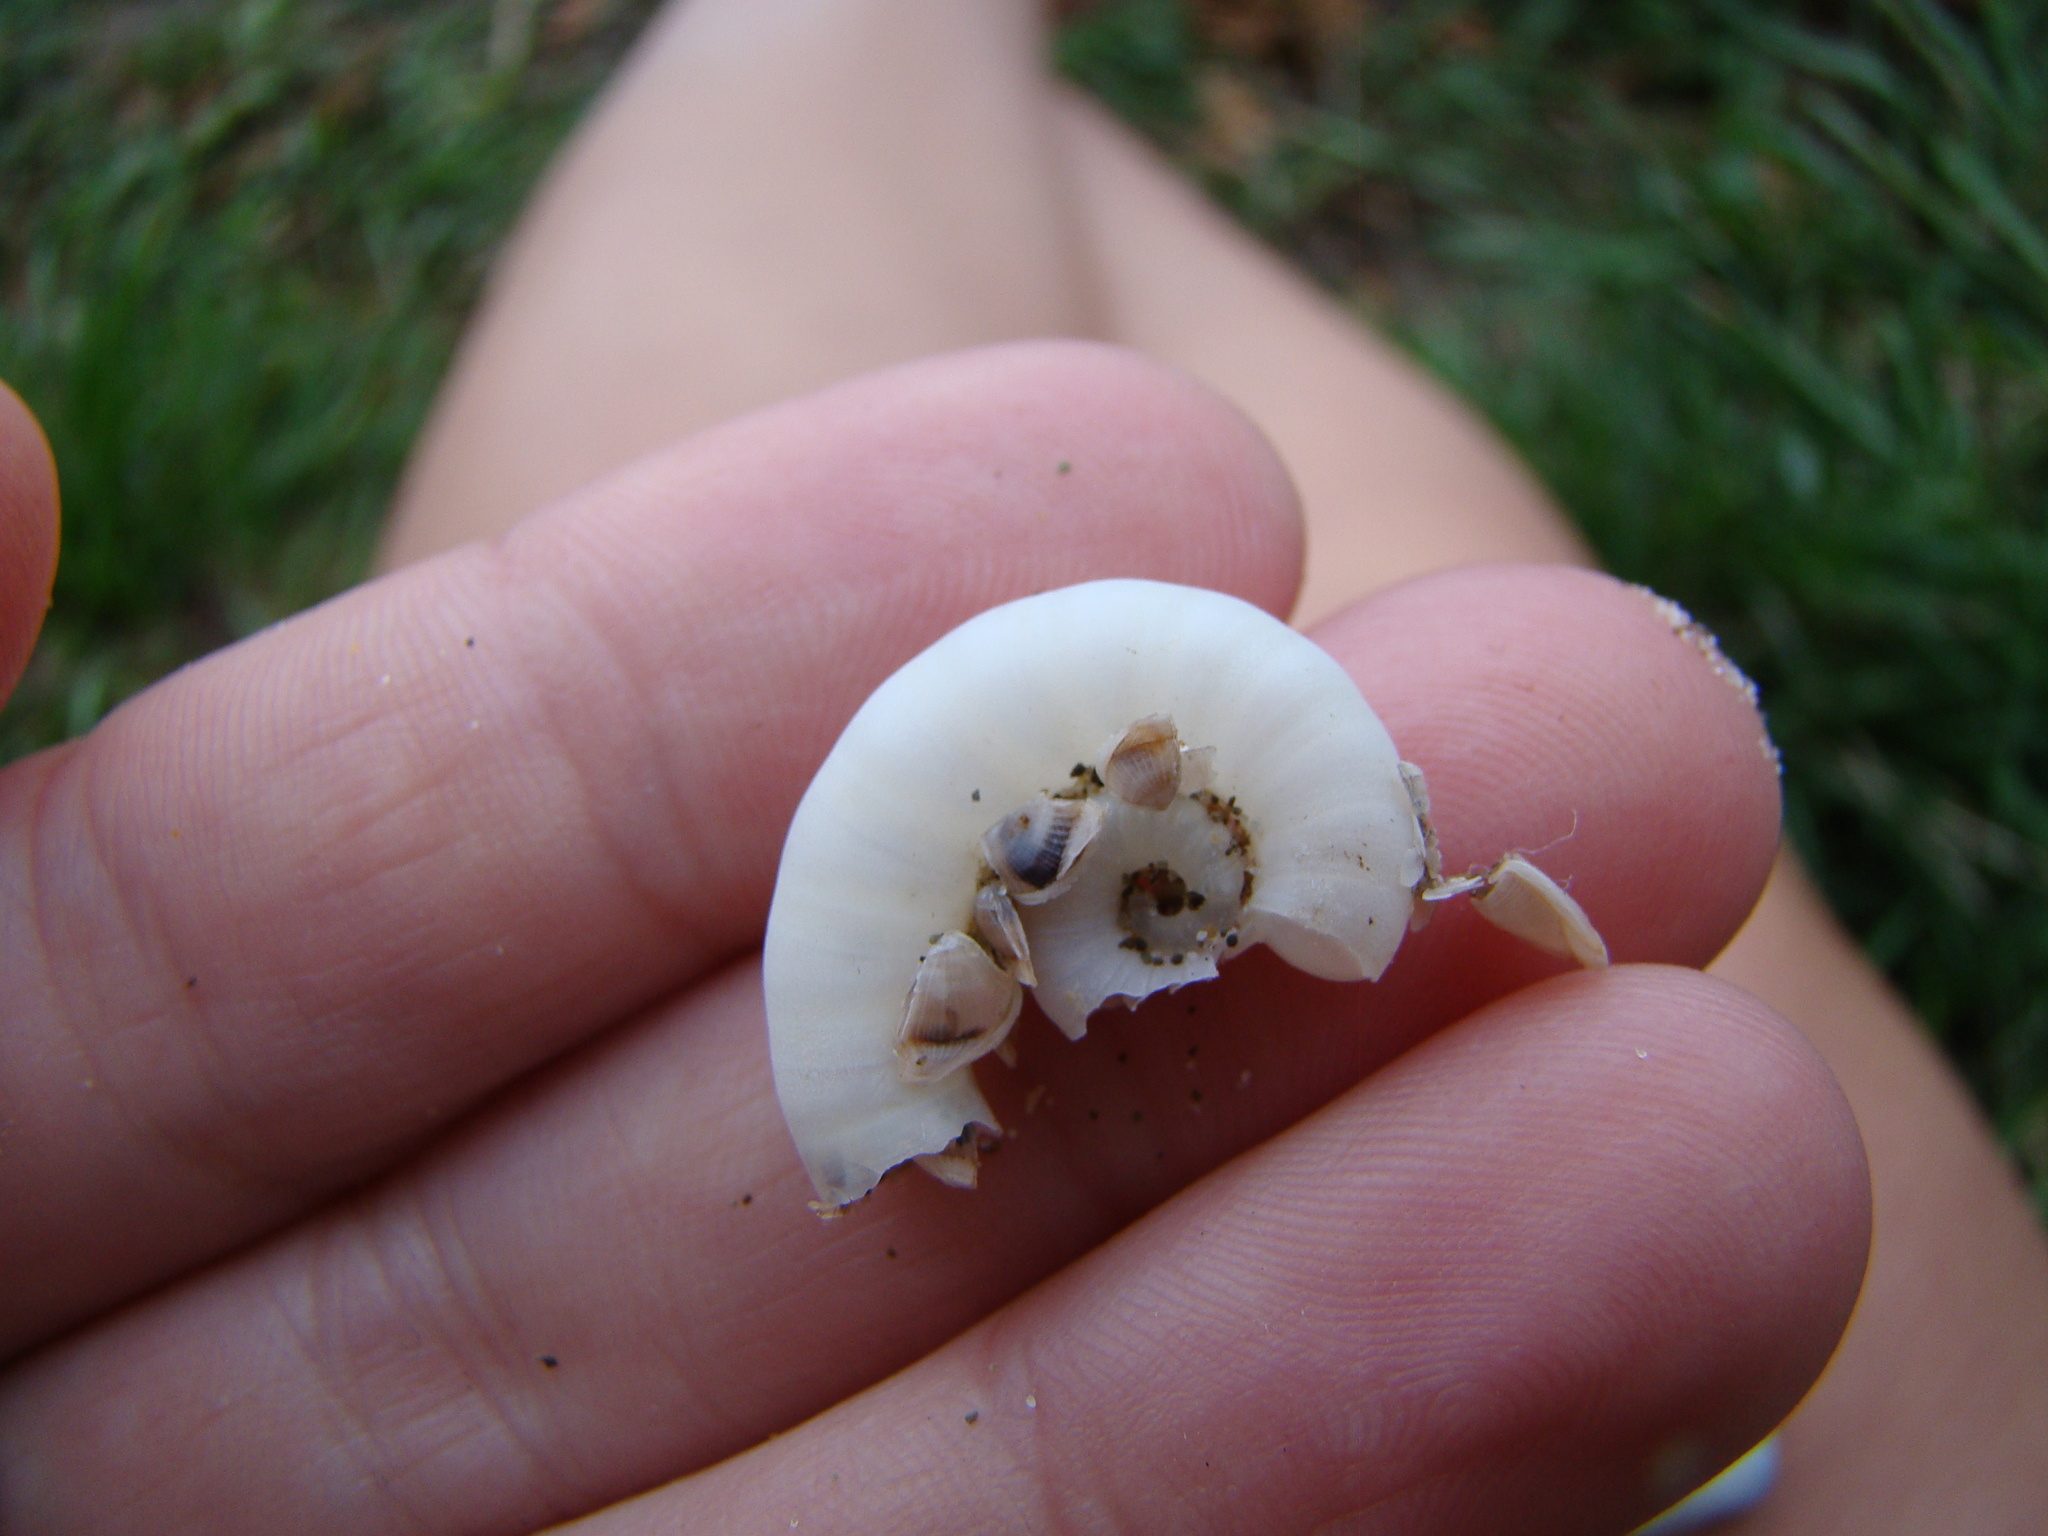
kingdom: Animalia
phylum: Mollusca
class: Cephalopoda
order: Spirulida
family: Spirulidae
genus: Spirula
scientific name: Spirula spirula
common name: Ram's horn squid
